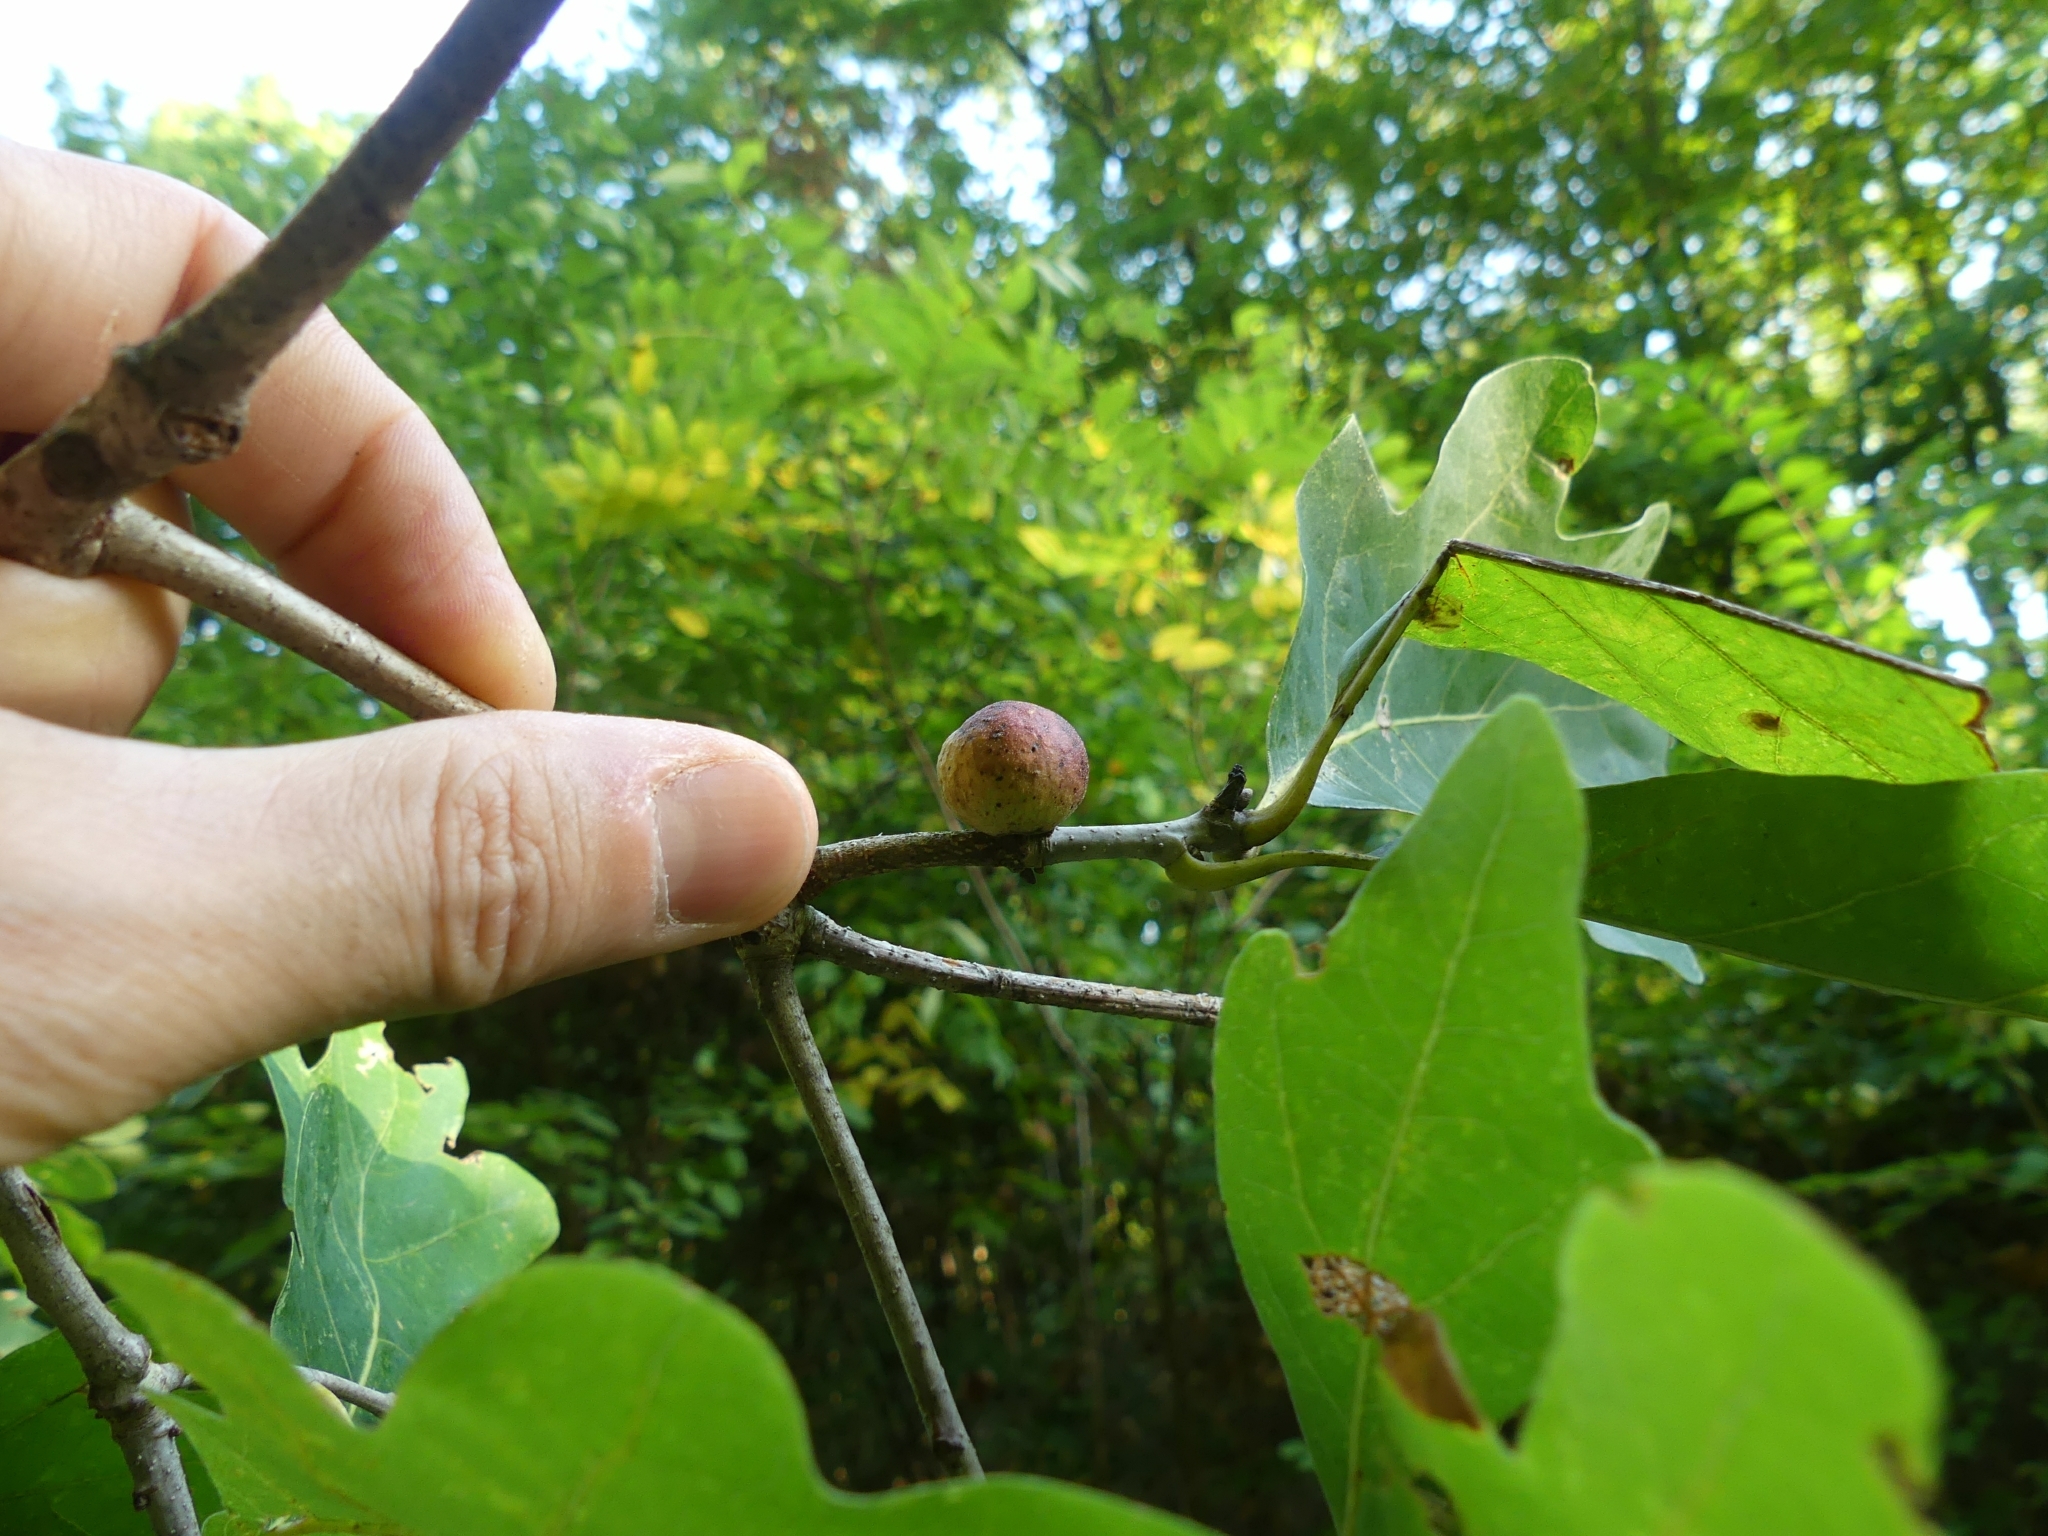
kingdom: Animalia
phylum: Arthropoda
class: Insecta
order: Hymenoptera
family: Cynipidae
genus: Disholcaspis
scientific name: Disholcaspis quercusglobulus
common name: Round bullet gall wasp
